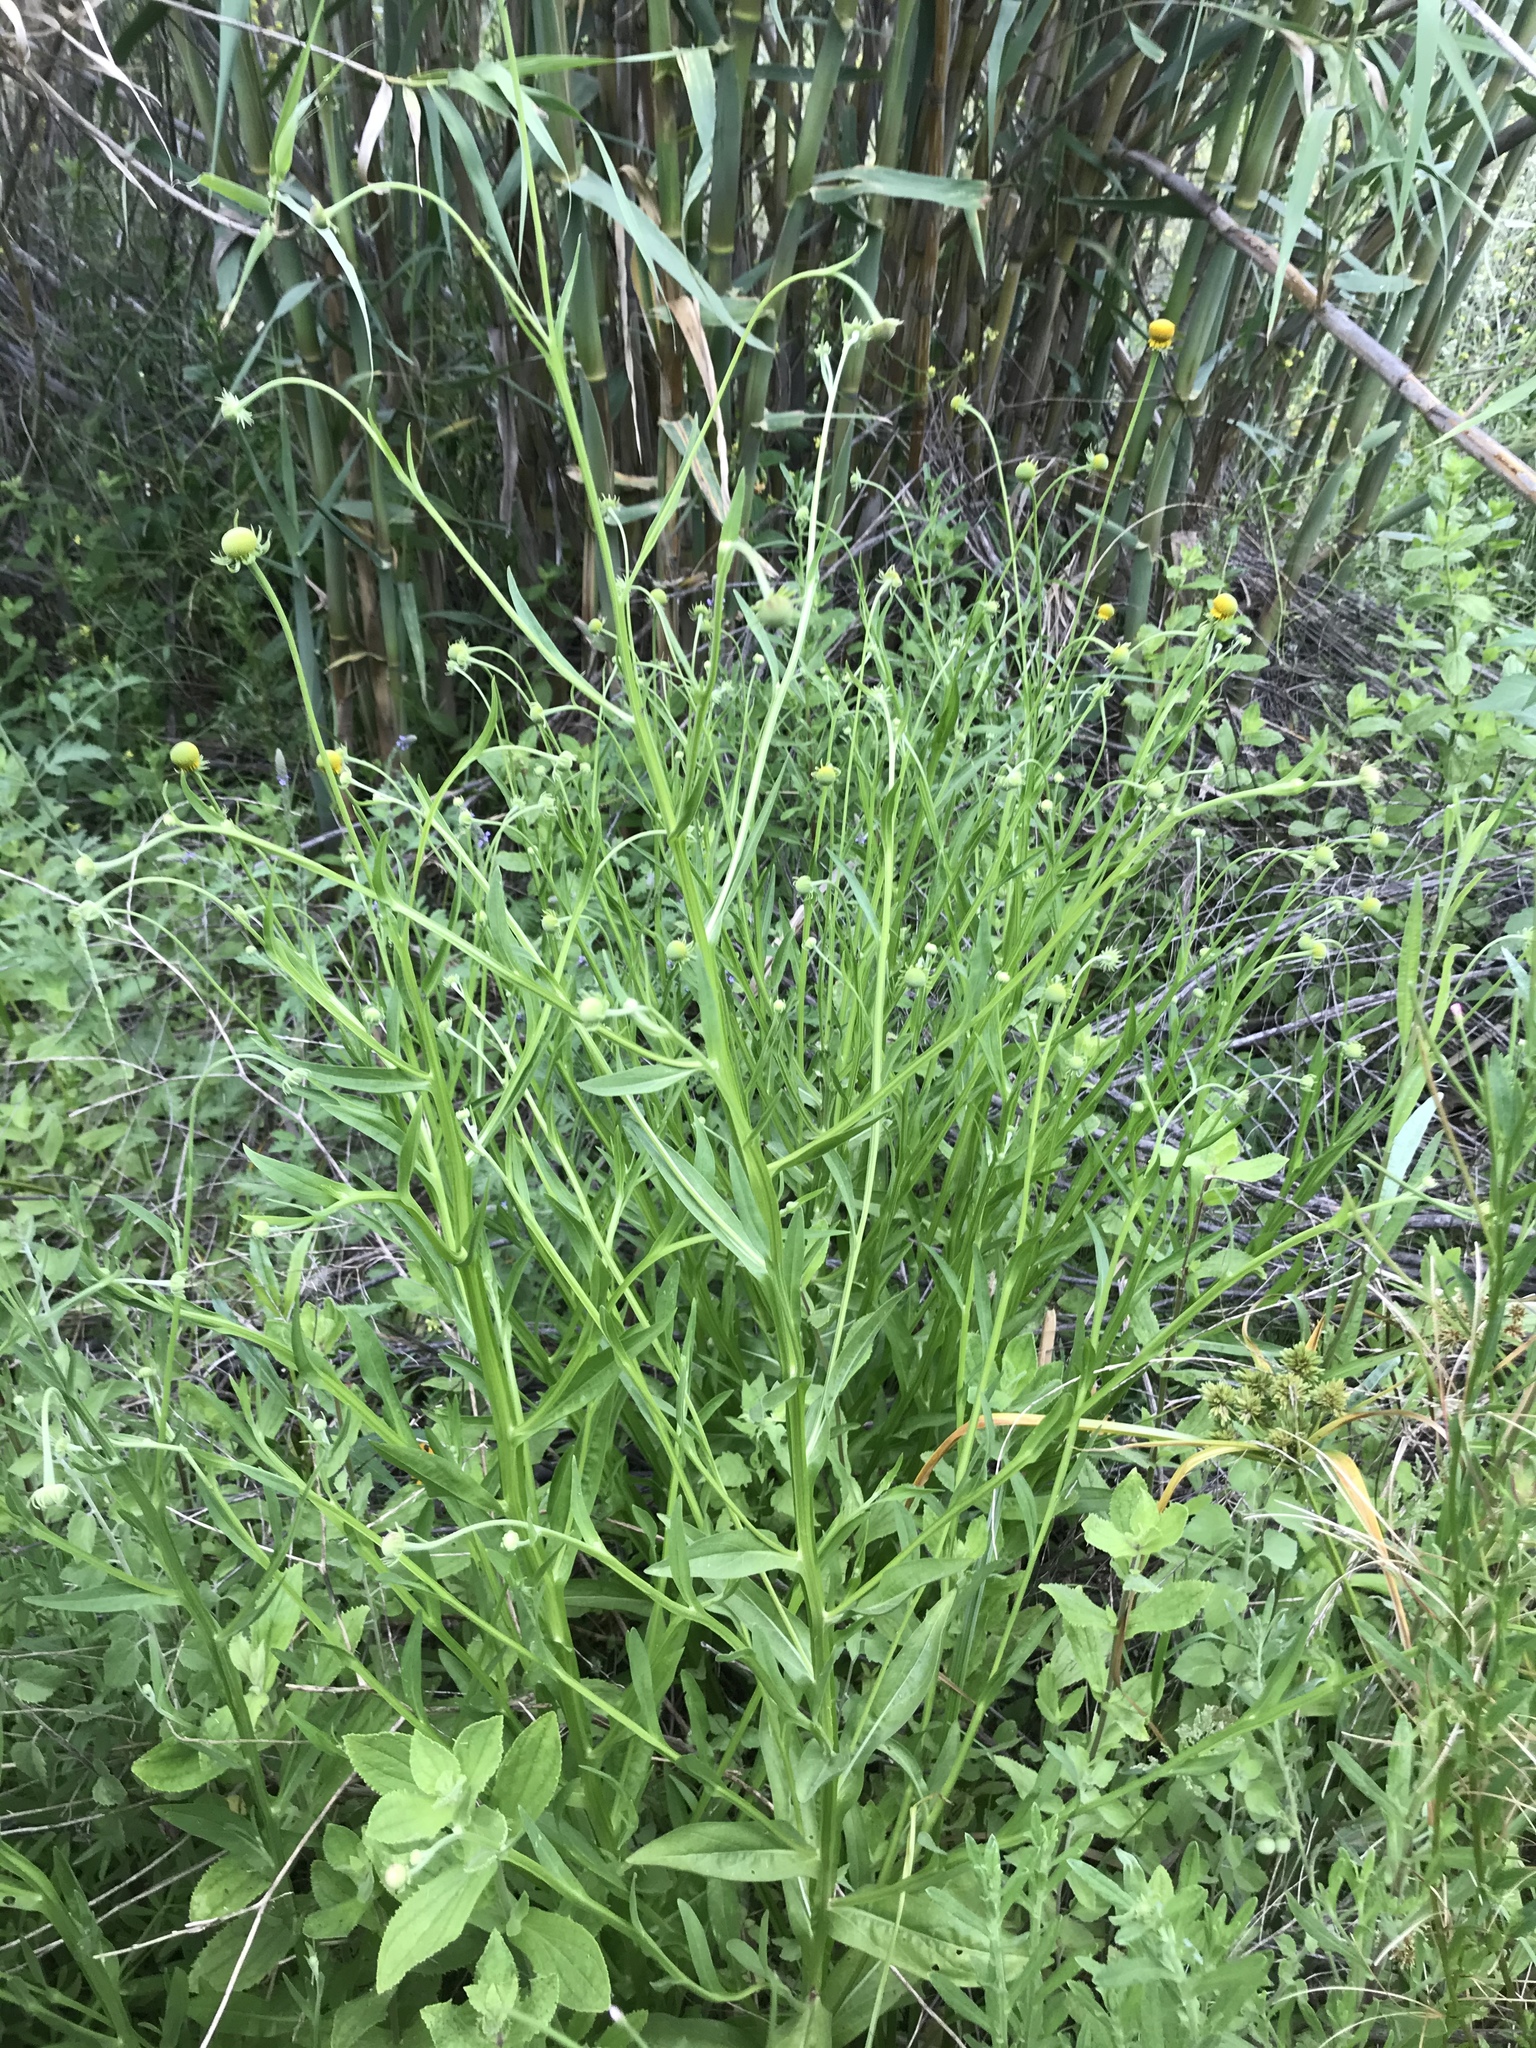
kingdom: Plantae
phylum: Tracheophyta
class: Magnoliopsida
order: Asterales
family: Asteraceae
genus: Helenium
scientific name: Helenium puberulum
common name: Sneezewort
